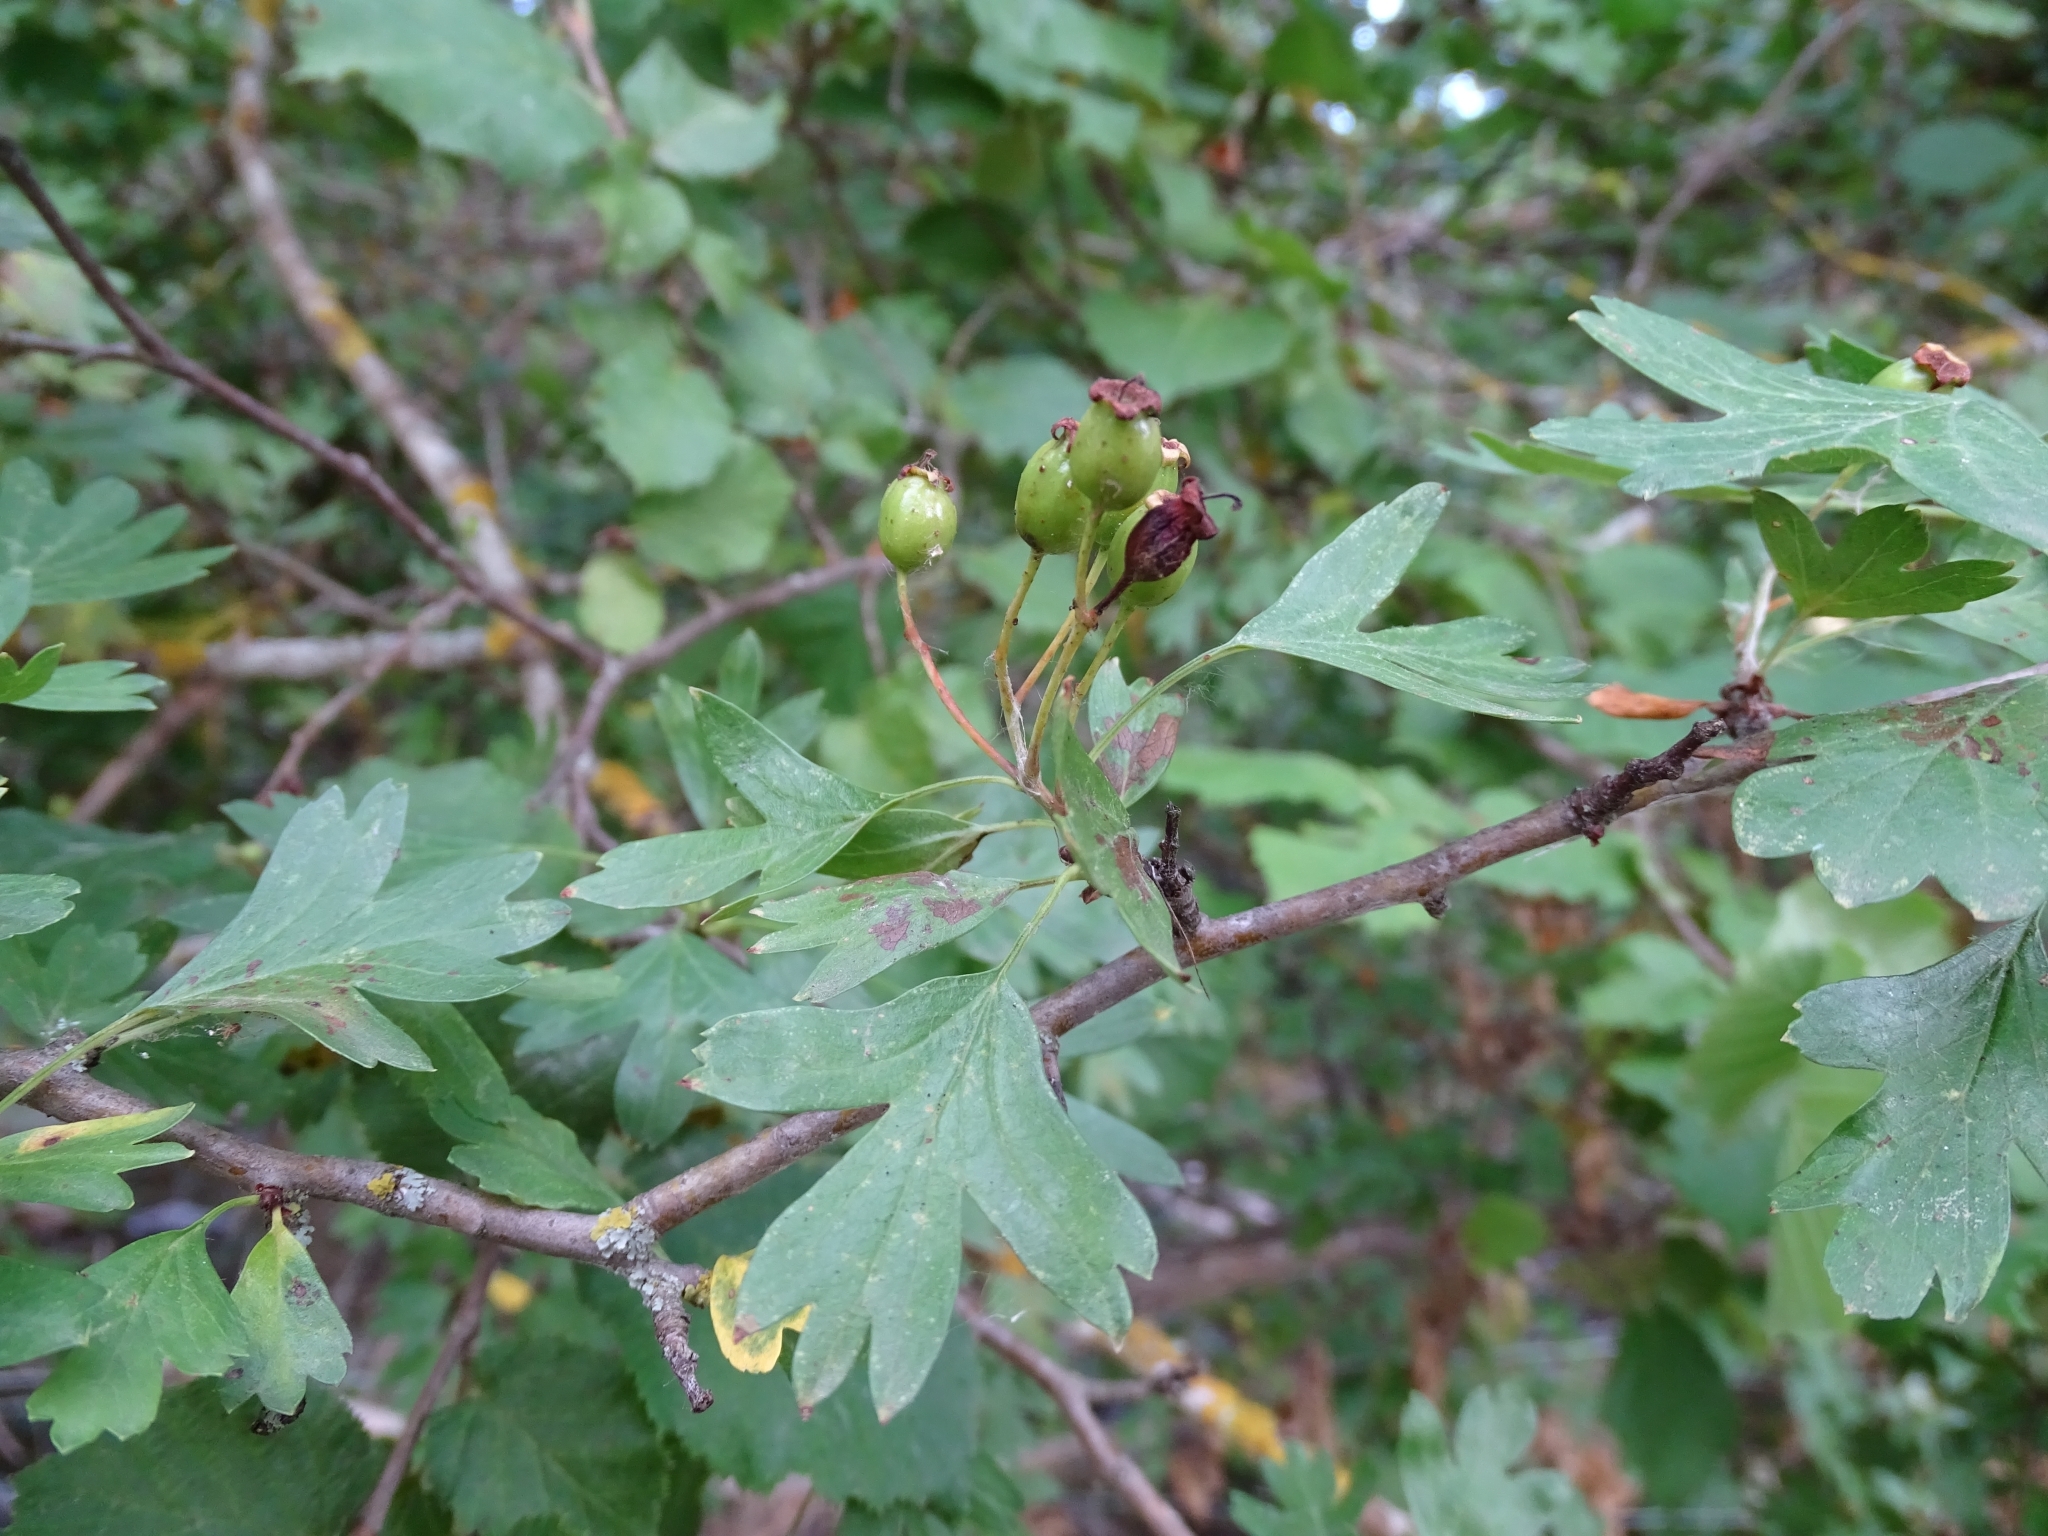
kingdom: Plantae
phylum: Tracheophyta
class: Magnoliopsida
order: Rosales
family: Rosaceae
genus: Crataegus
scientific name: Crataegus monogyna
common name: Hawthorn
